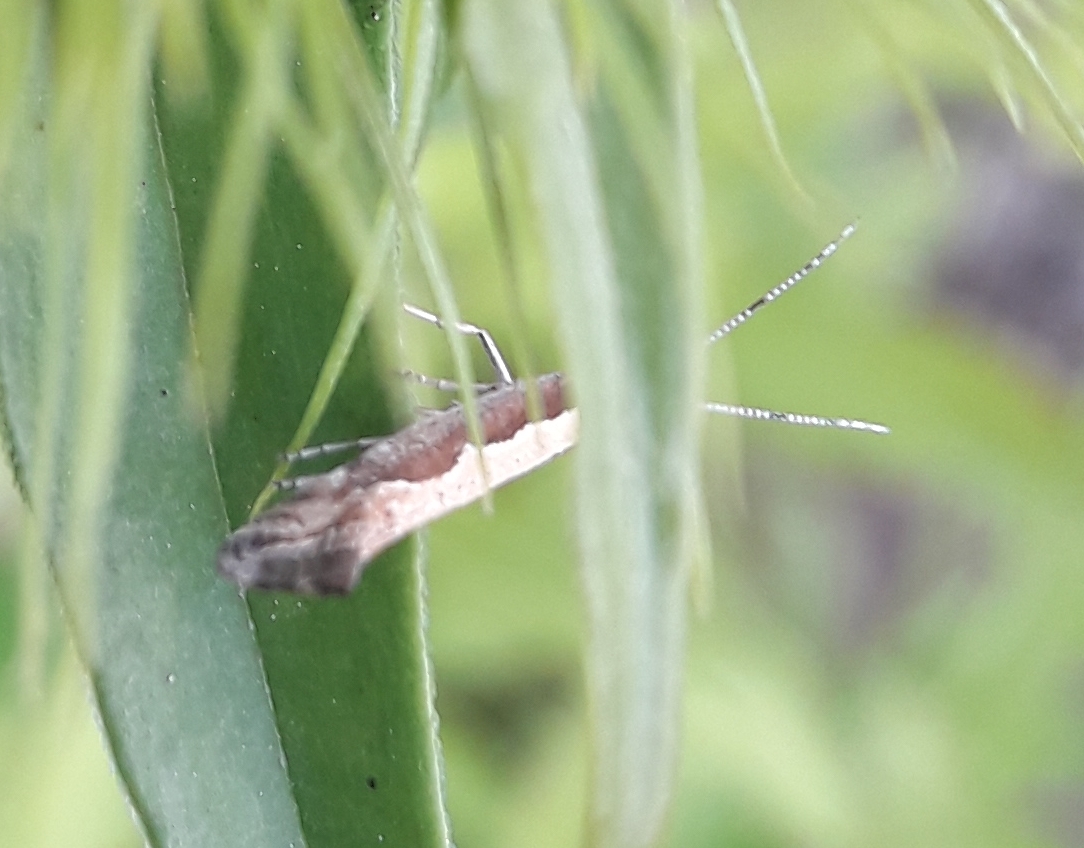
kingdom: Animalia
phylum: Arthropoda
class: Insecta
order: Lepidoptera
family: Plutellidae
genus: Plutella
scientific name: Plutella xylostella
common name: Diamond-back moth
